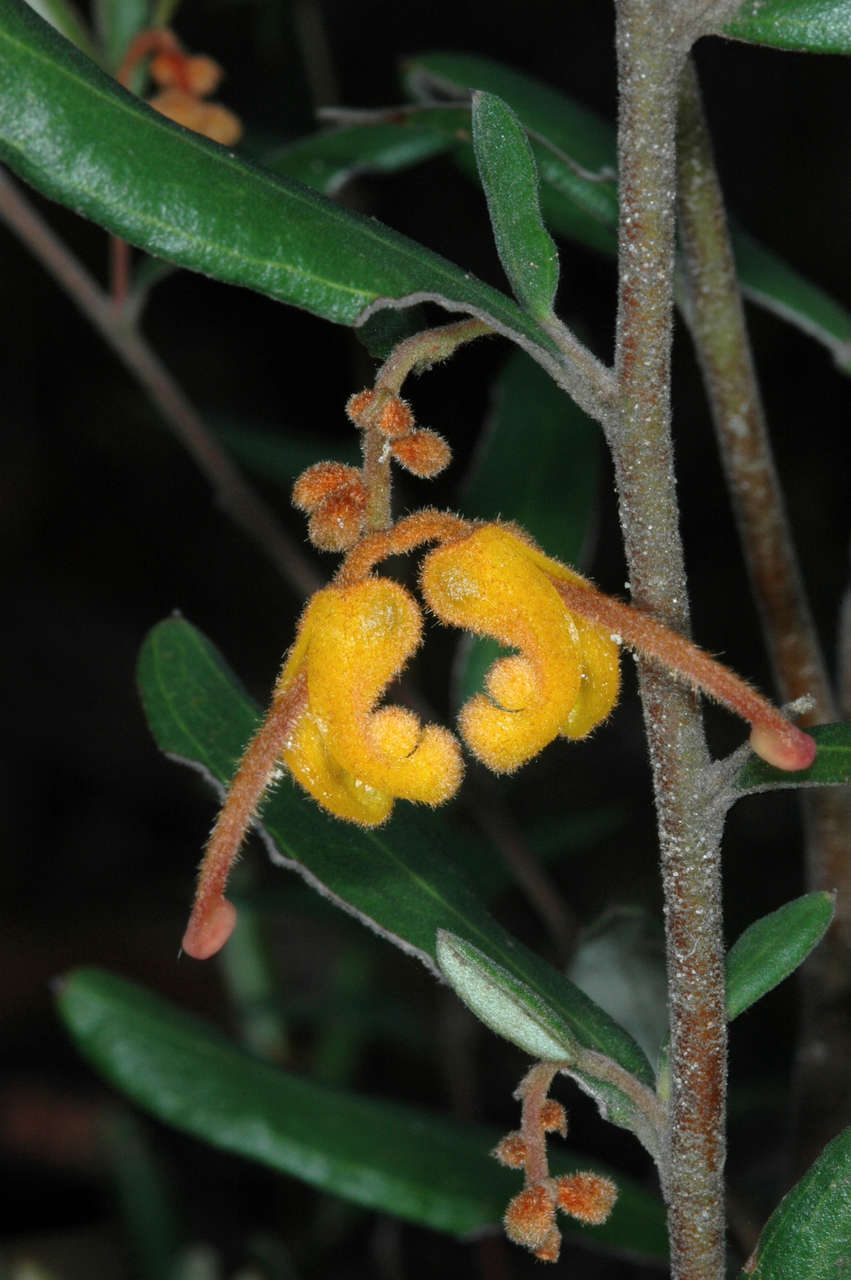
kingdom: Plantae
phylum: Tracheophyta
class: Magnoliopsida
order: Proteales
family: Proteaceae
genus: Grevillea
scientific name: Grevillea chrysophaea
